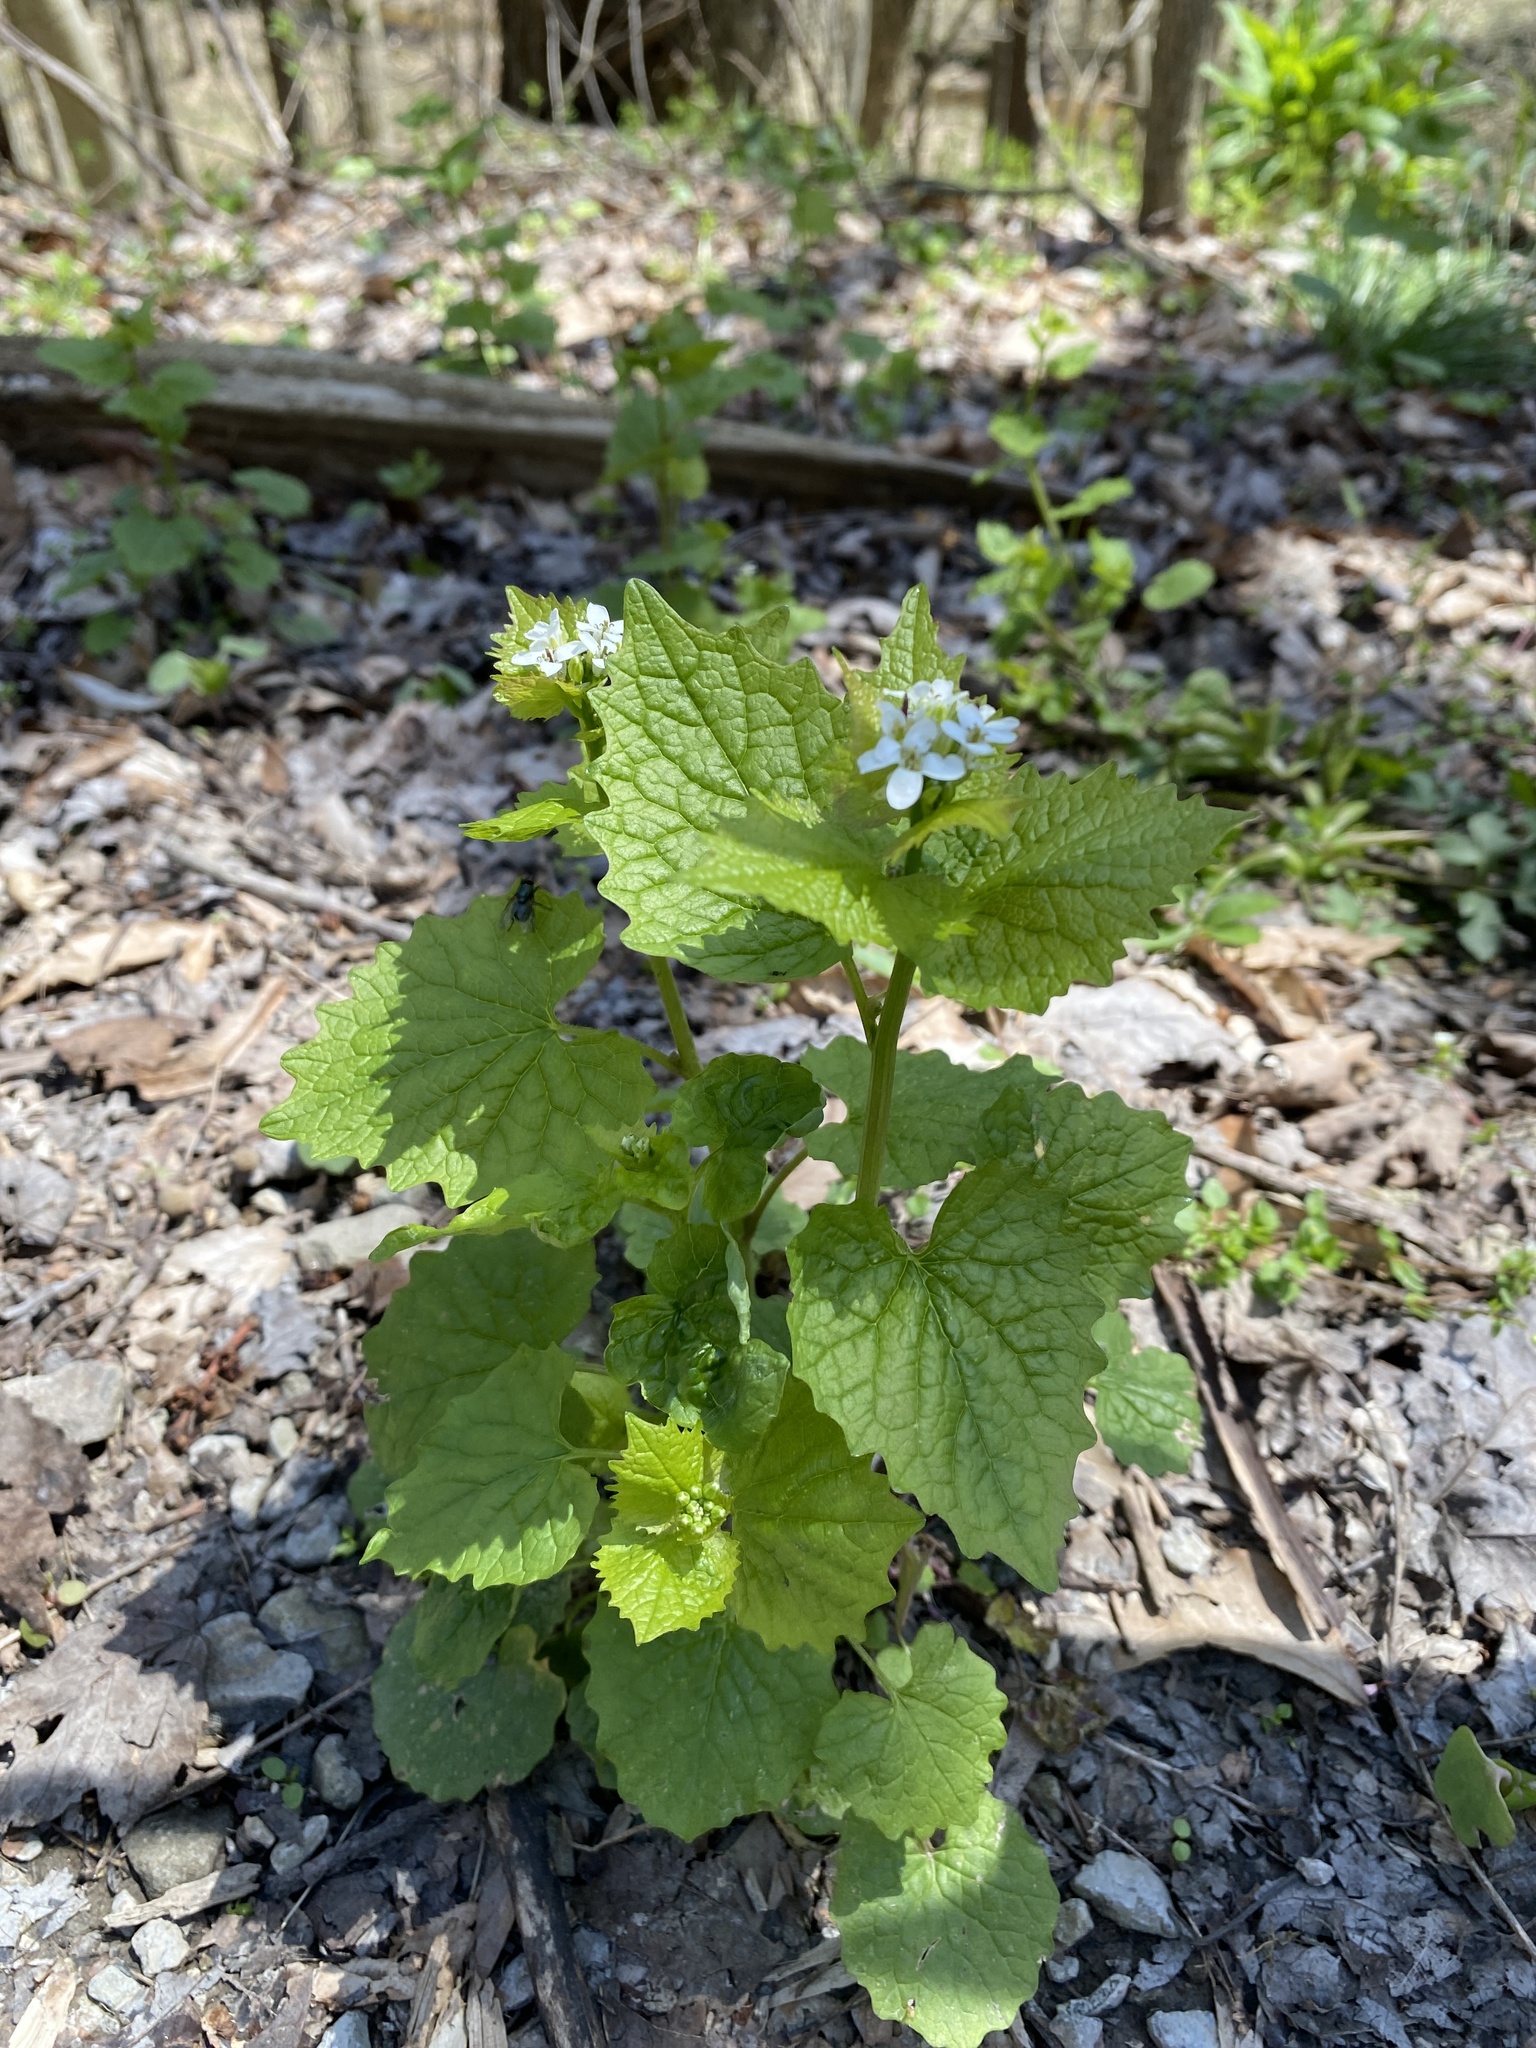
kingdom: Plantae
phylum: Tracheophyta
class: Magnoliopsida
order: Brassicales
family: Brassicaceae
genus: Alliaria
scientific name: Alliaria petiolata
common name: Garlic mustard
